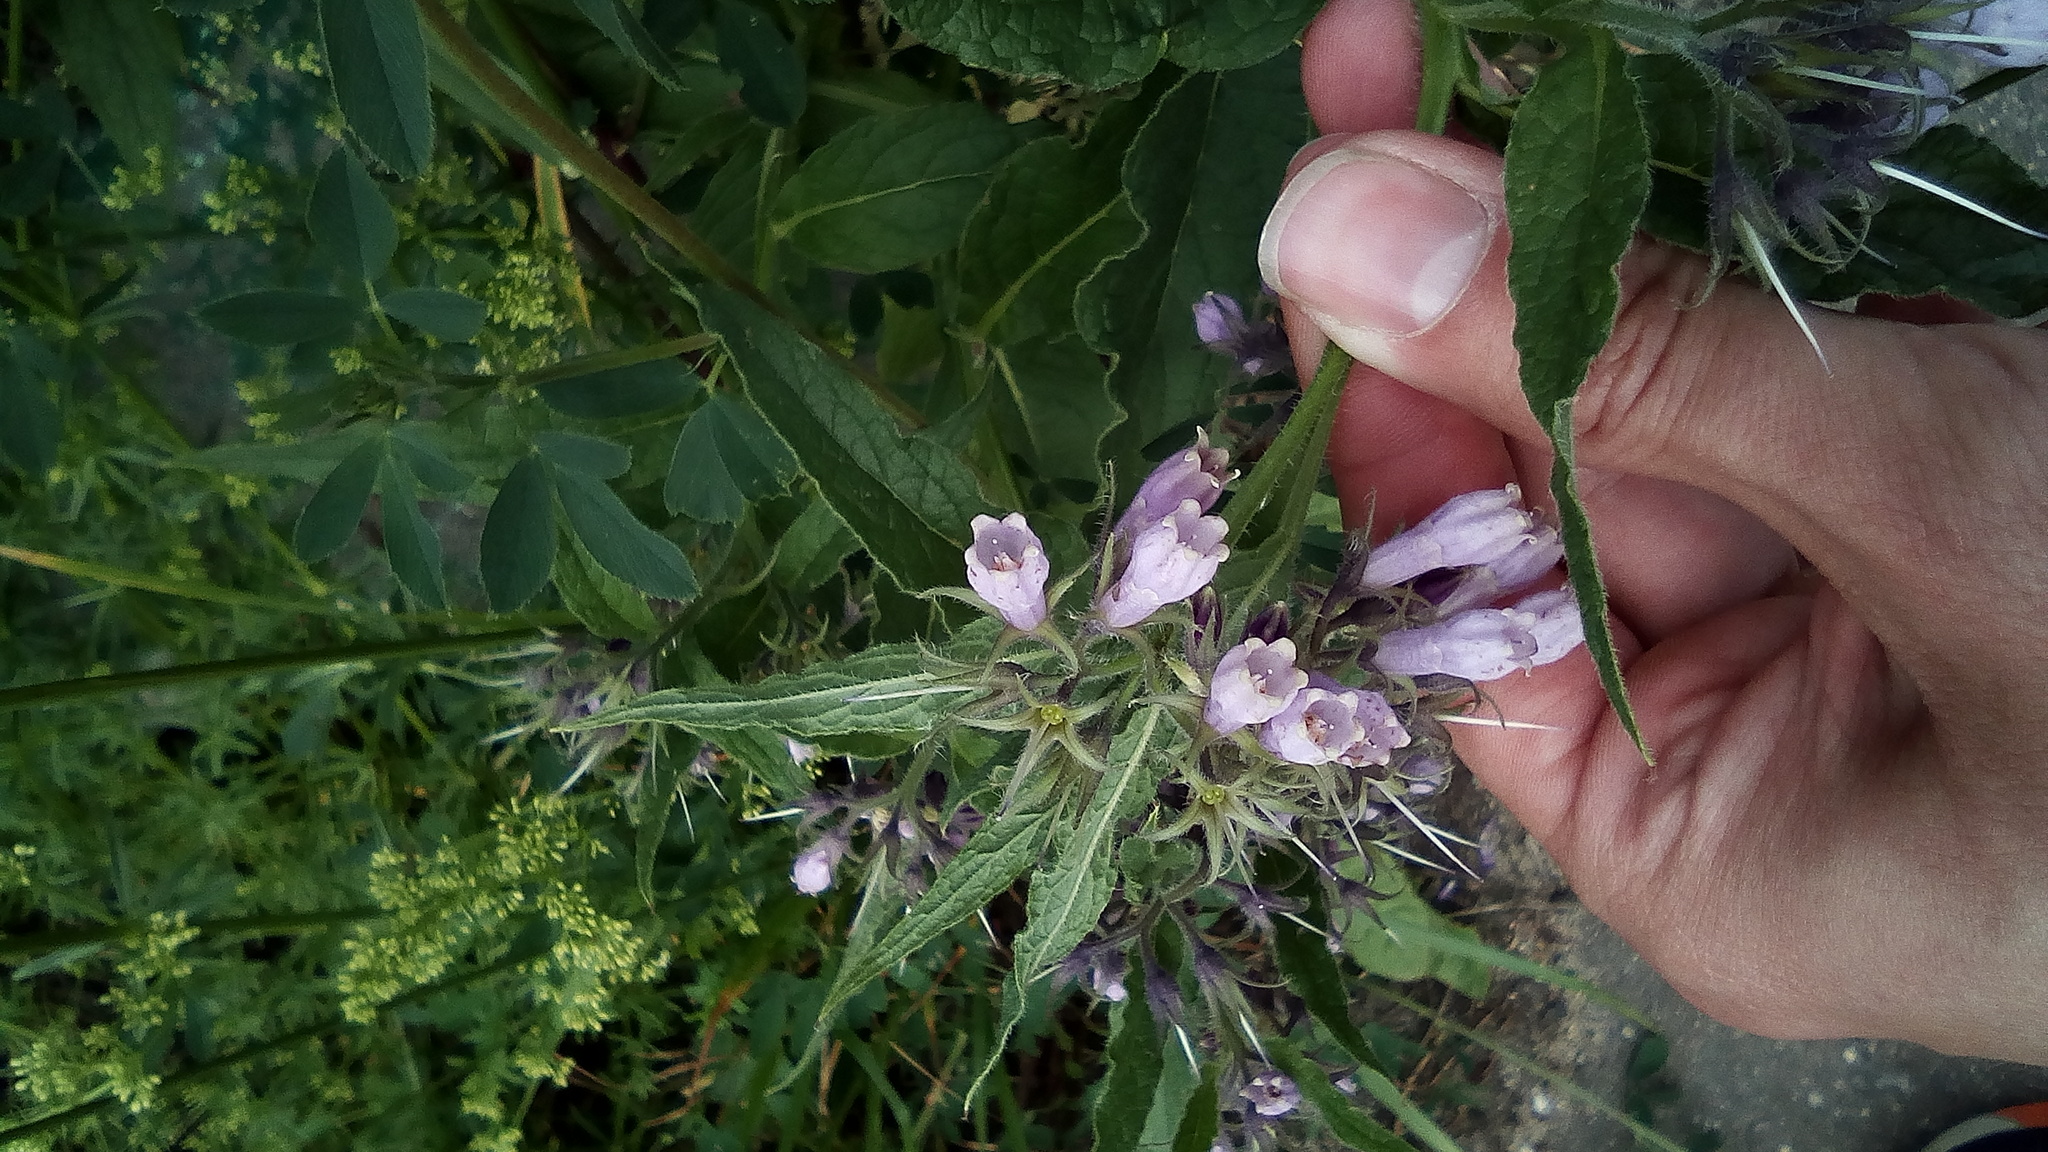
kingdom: Plantae
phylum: Tracheophyta
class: Magnoliopsida
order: Boraginales
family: Boraginaceae
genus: Symphytum
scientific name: Symphytum uplandicum
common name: Russian comfrey
